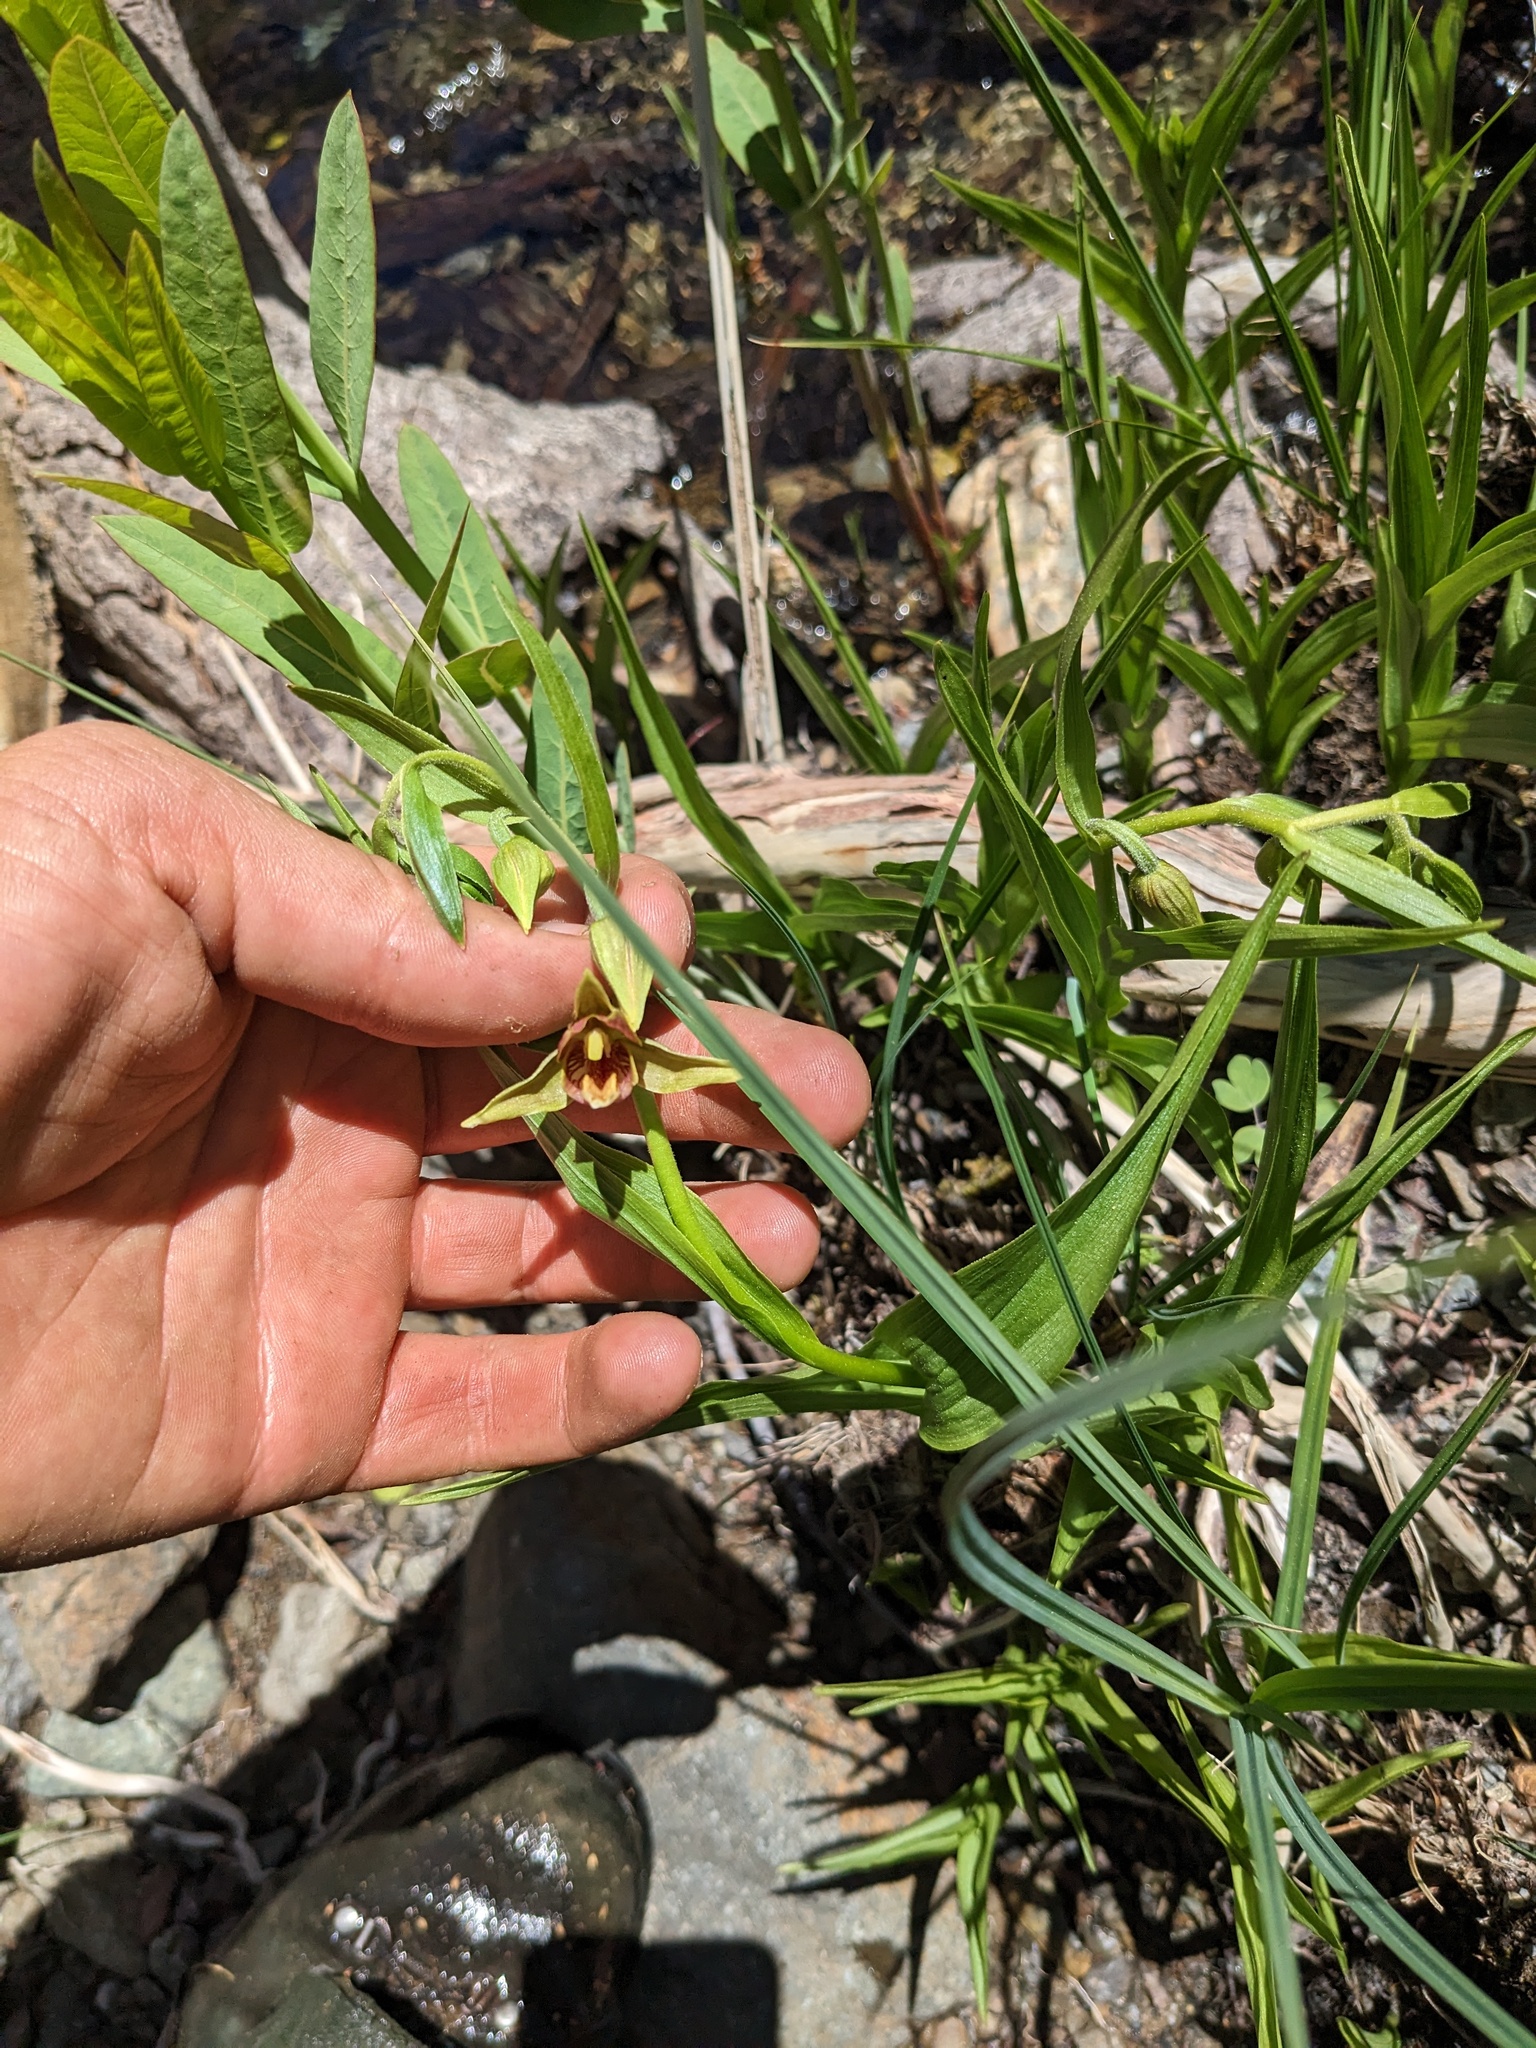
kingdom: Plantae
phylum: Tracheophyta
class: Liliopsida
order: Asparagales
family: Orchidaceae
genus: Epipactis
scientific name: Epipactis gigantea
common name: Chatterbox
